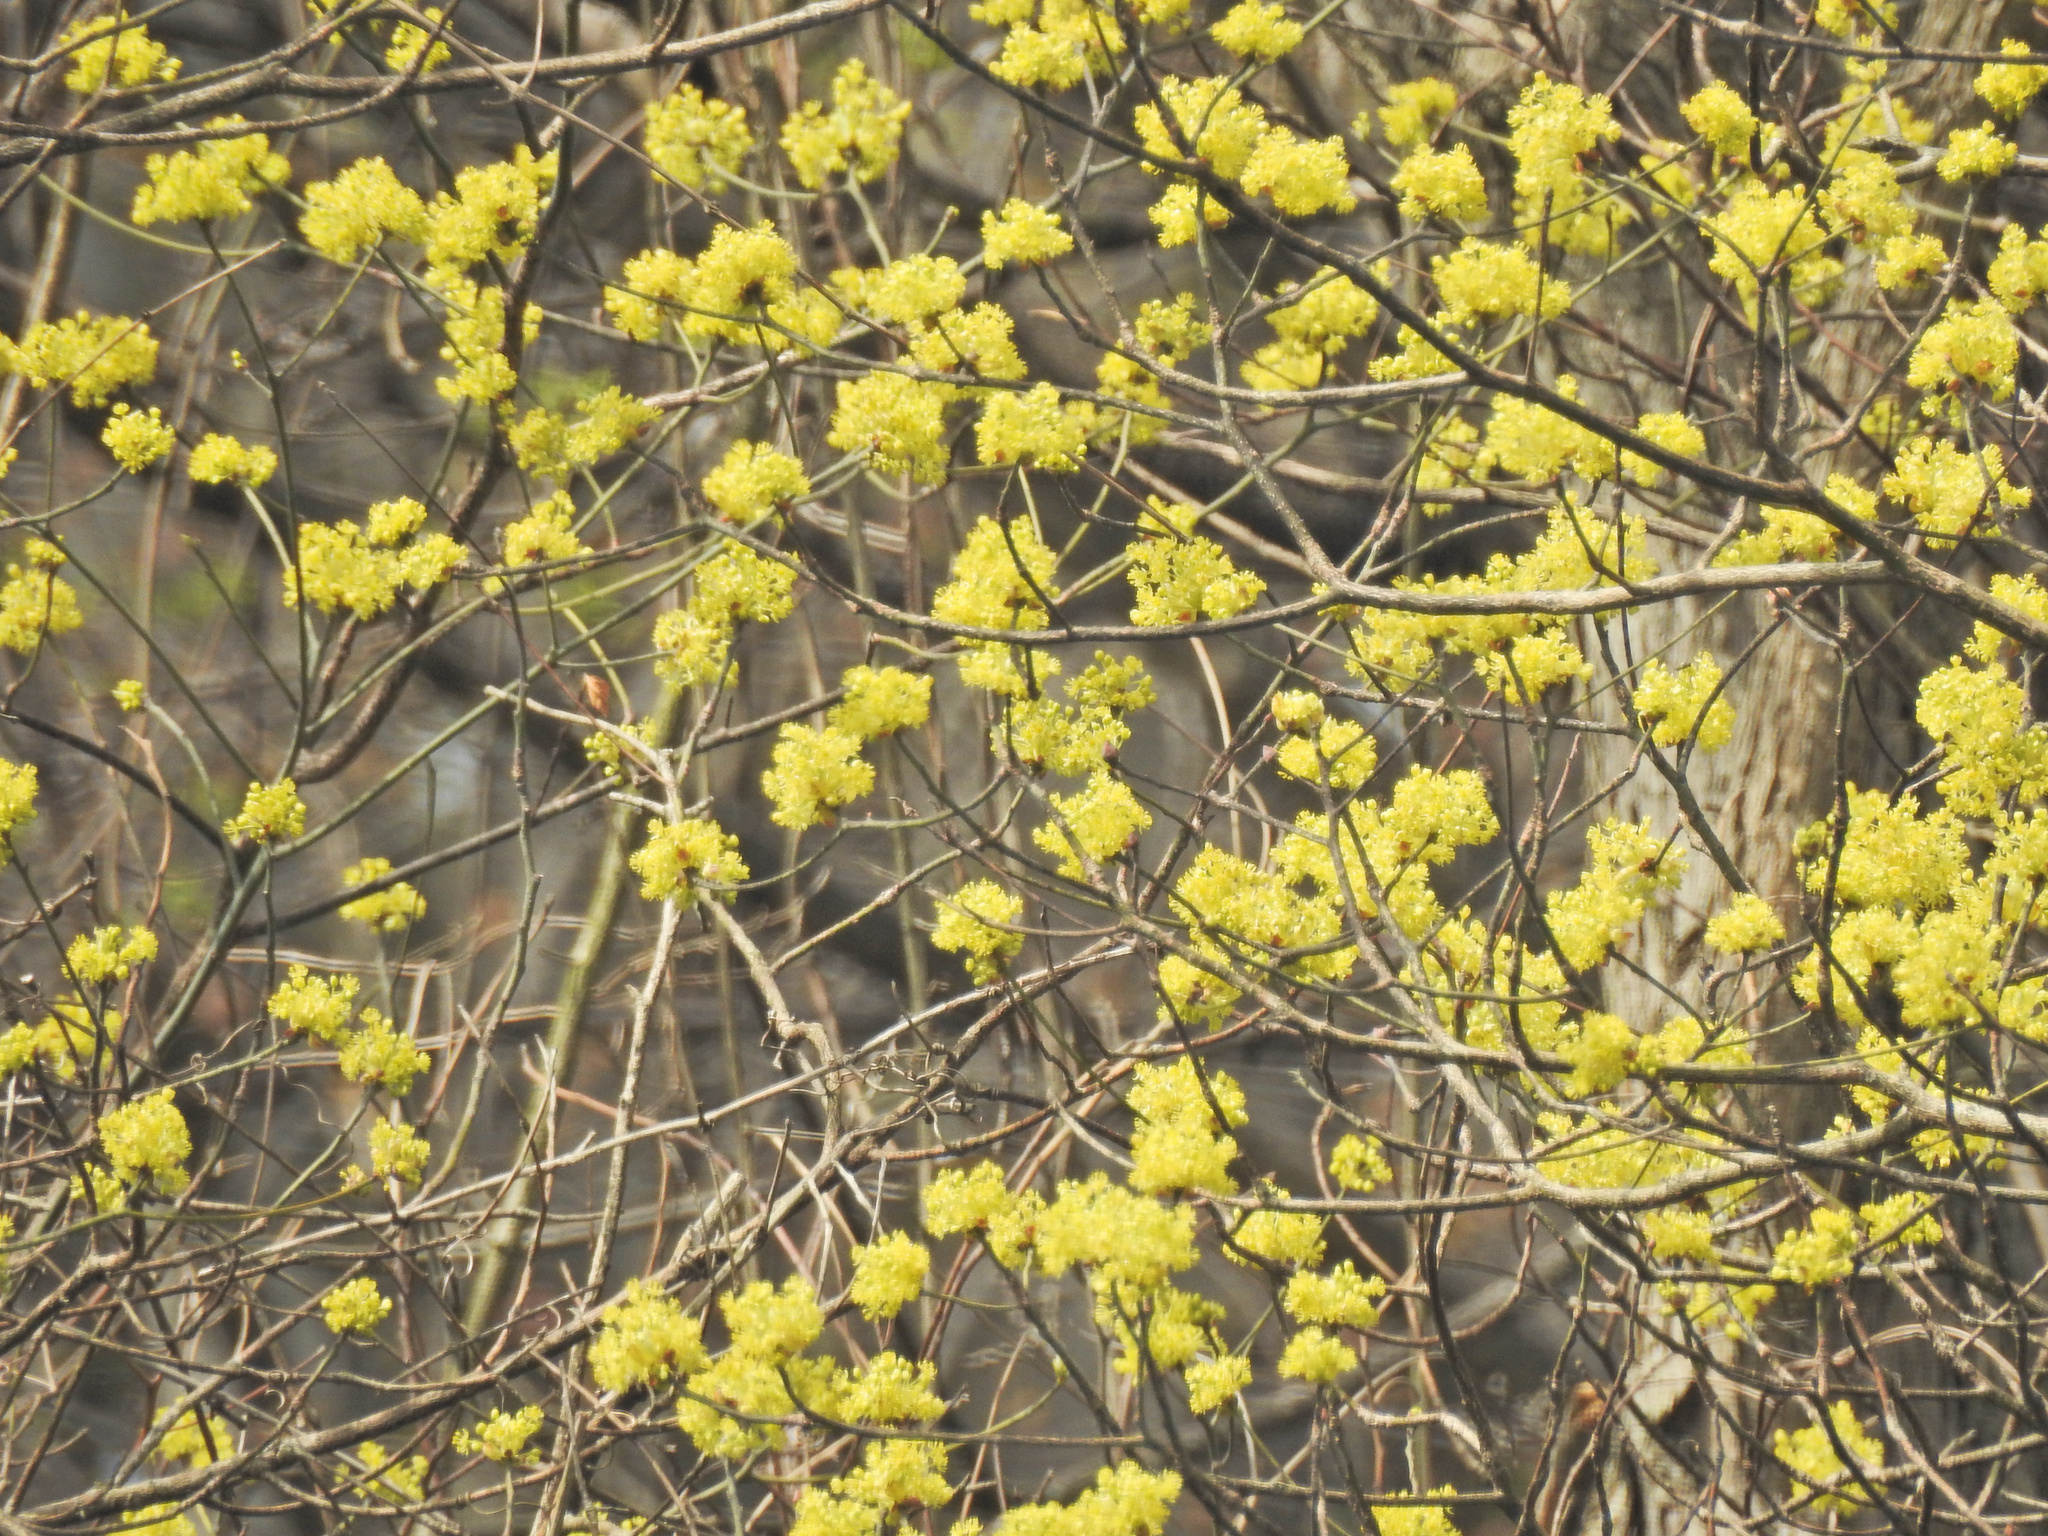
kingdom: Plantae
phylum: Tracheophyta
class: Magnoliopsida
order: Laurales
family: Lauraceae
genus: Sassafras
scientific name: Sassafras albidum
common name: Sassafras
